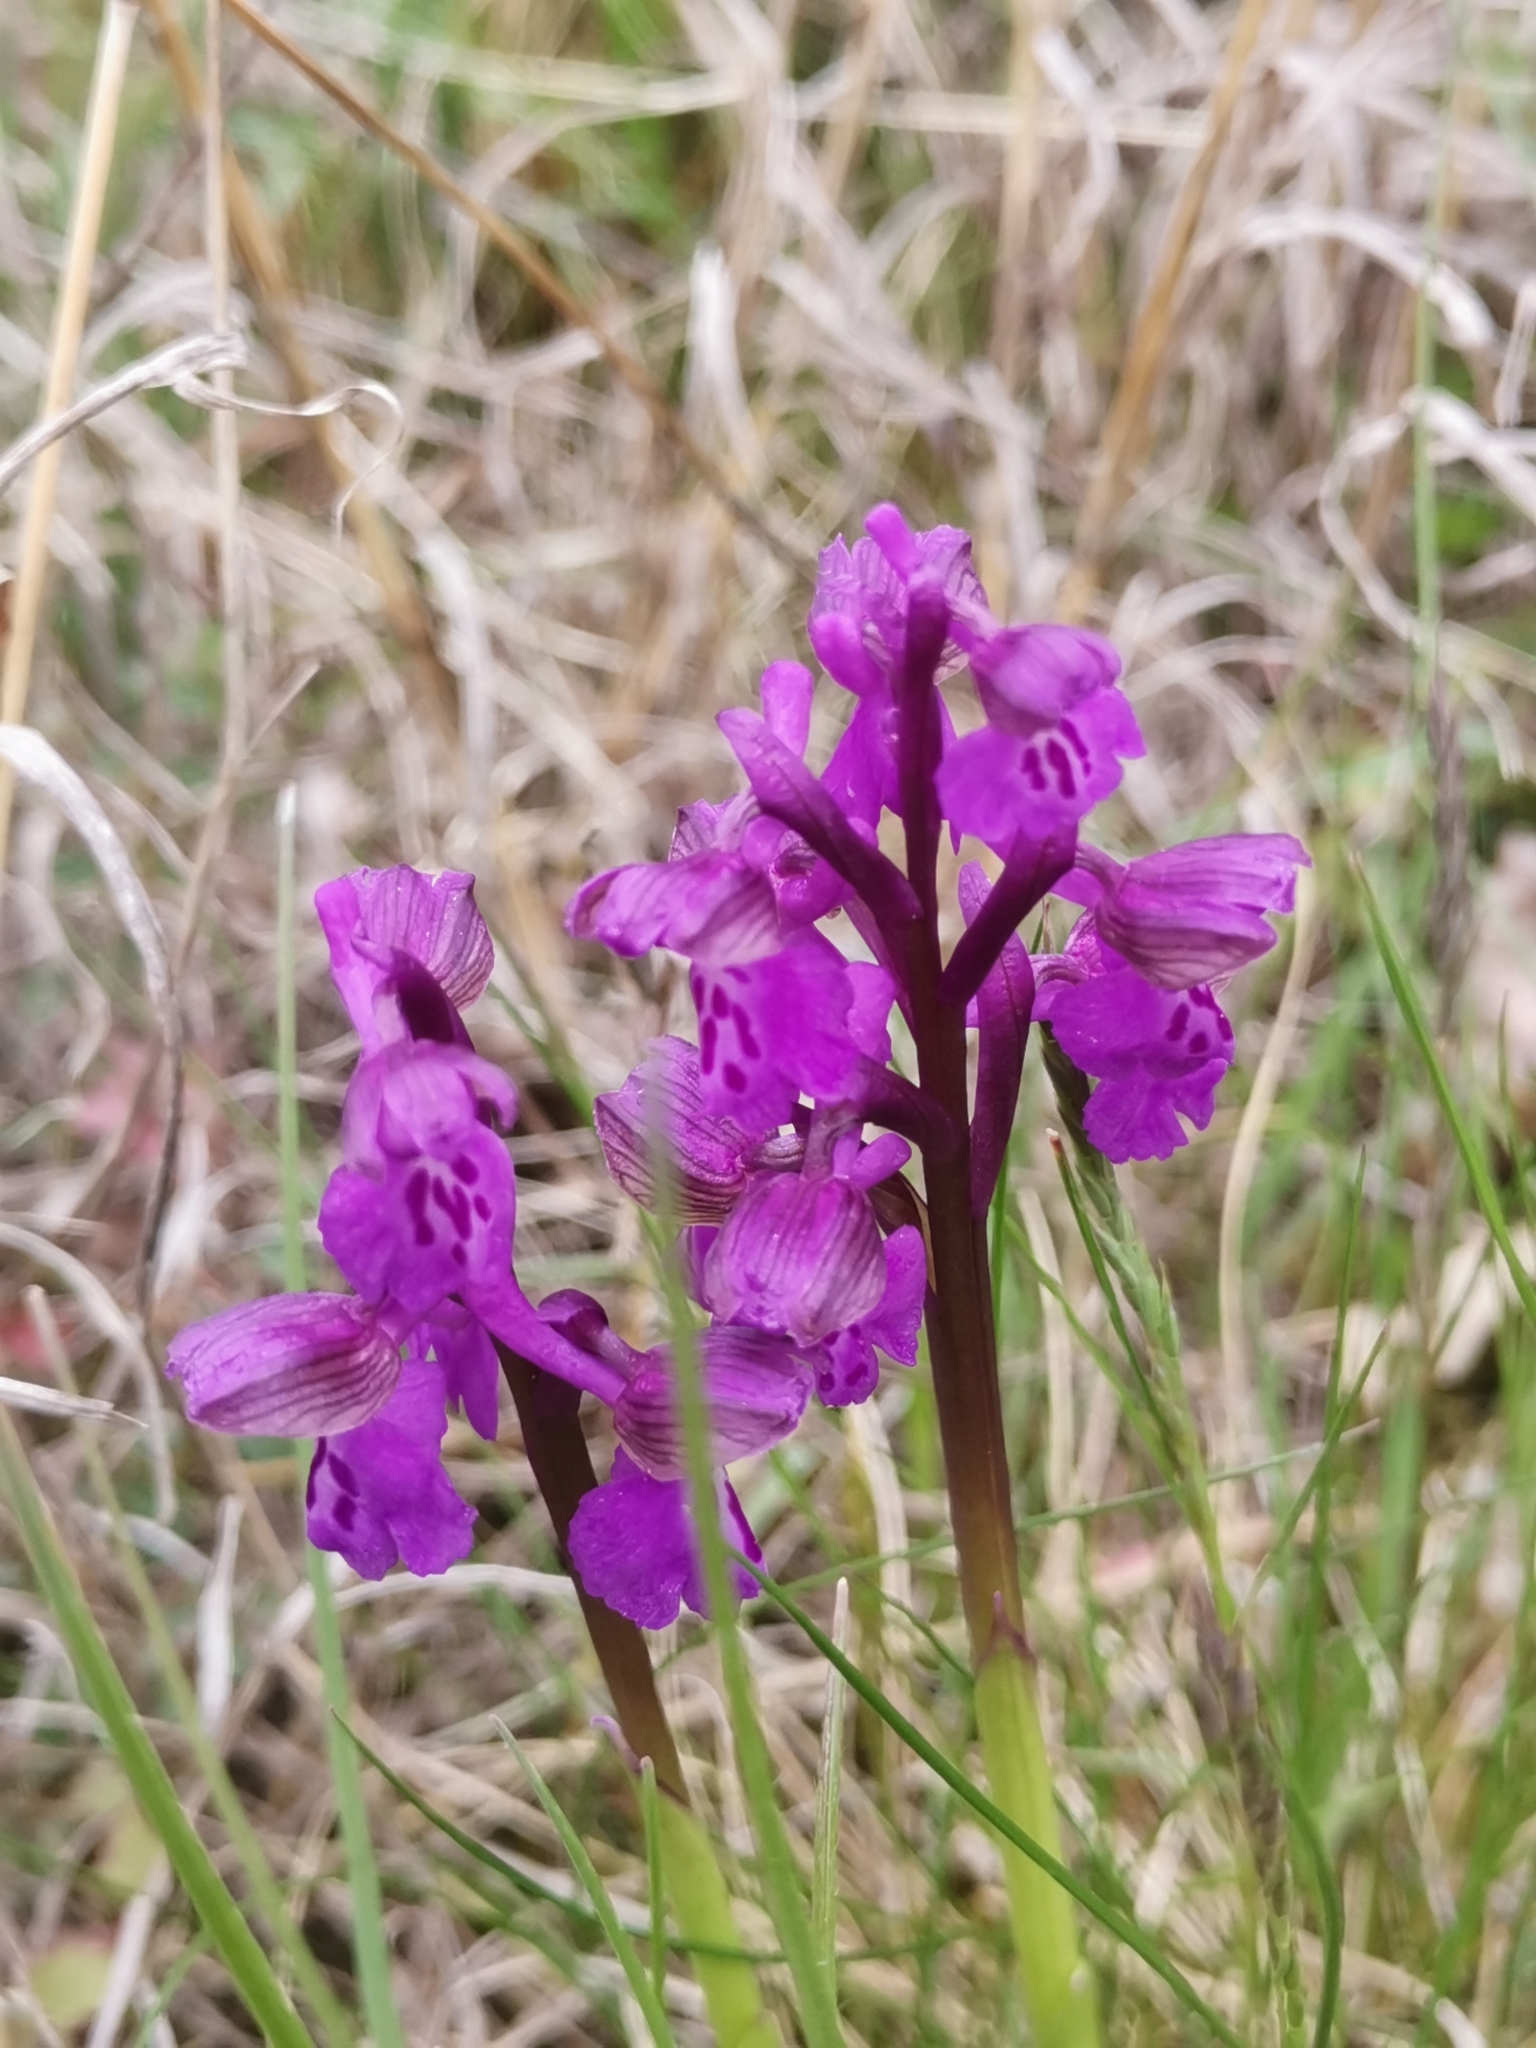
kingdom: Plantae
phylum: Tracheophyta
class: Liliopsida
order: Asparagales
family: Orchidaceae
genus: Anacamptis
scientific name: Anacamptis morio
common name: Green-winged orchid
